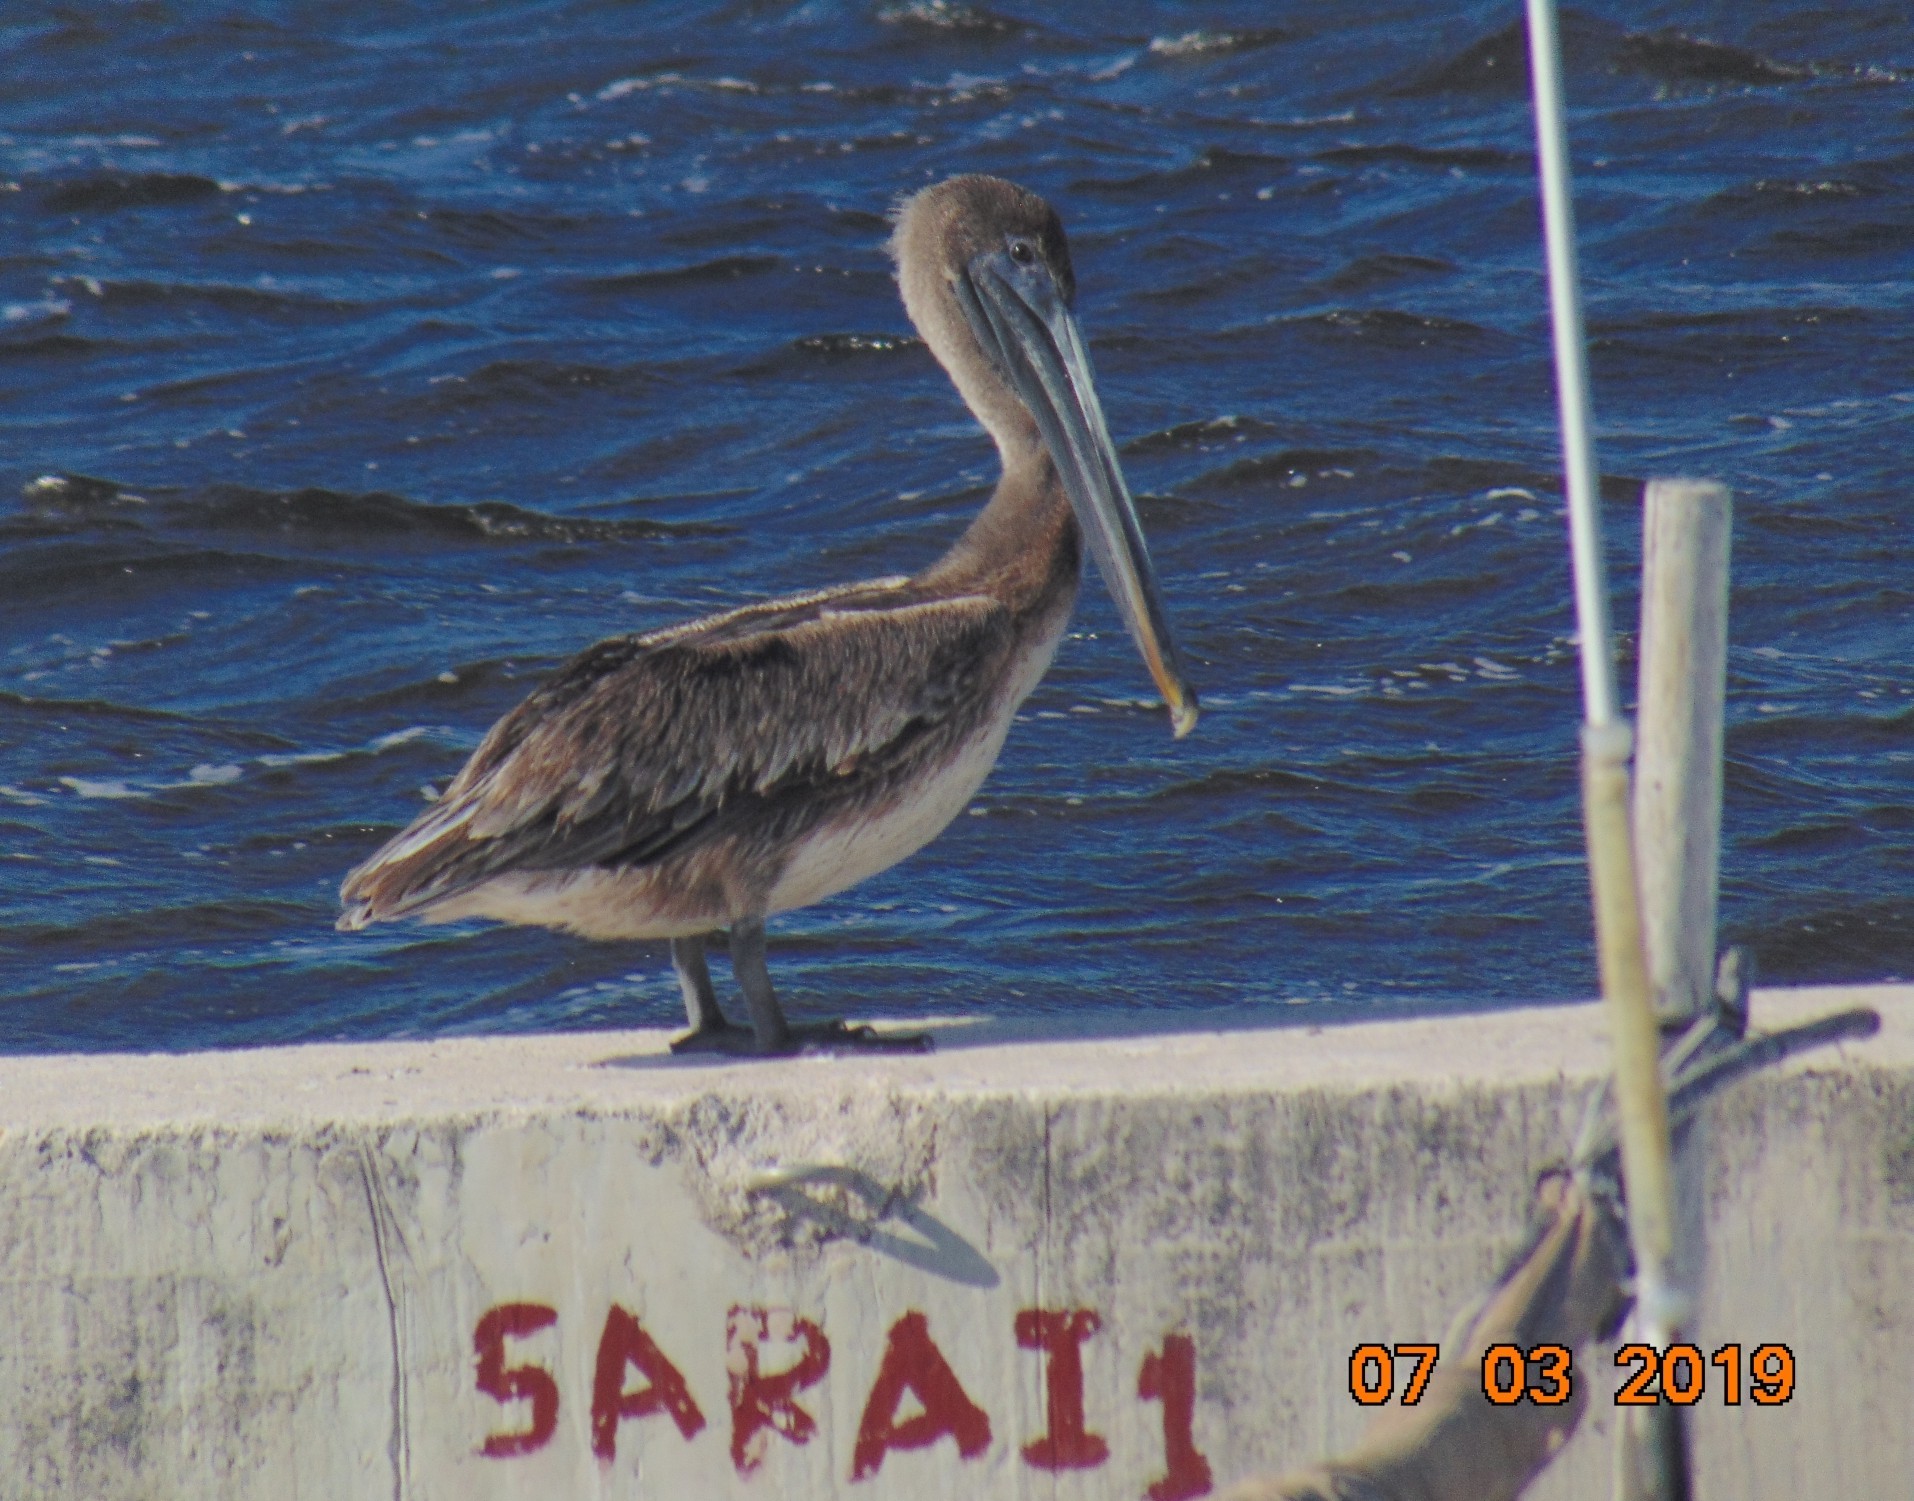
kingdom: Animalia
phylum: Chordata
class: Aves
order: Pelecaniformes
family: Pelecanidae
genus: Pelecanus
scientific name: Pelecanus occidentalis
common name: Brown pelican
